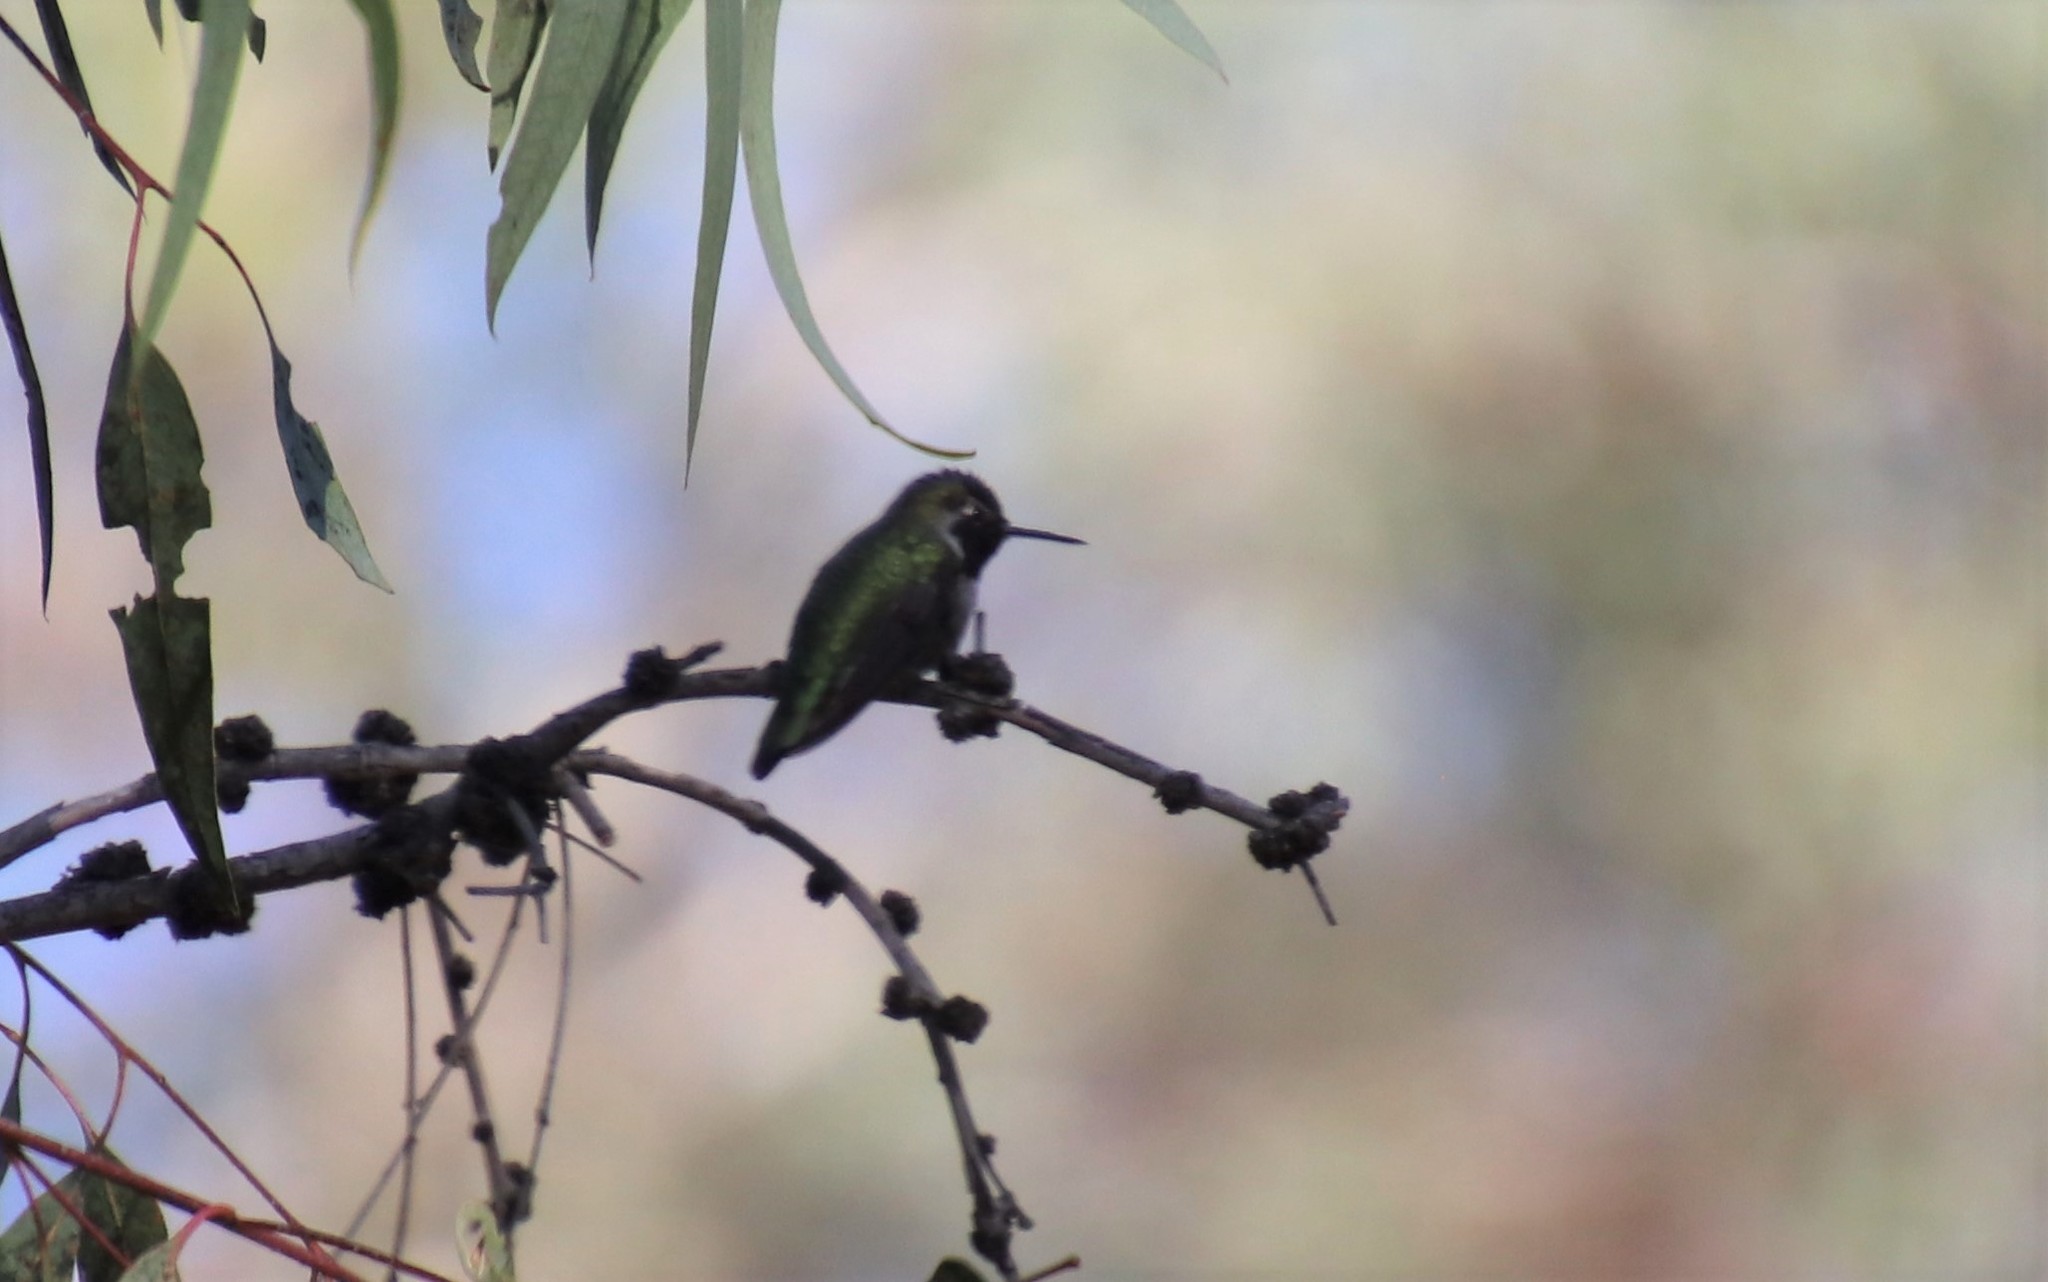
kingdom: Animalia
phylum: Chordata
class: Aves
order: Apodiformes
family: Trochilidae
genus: Calypte
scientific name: Calypte anna
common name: Anna's hummingbird
